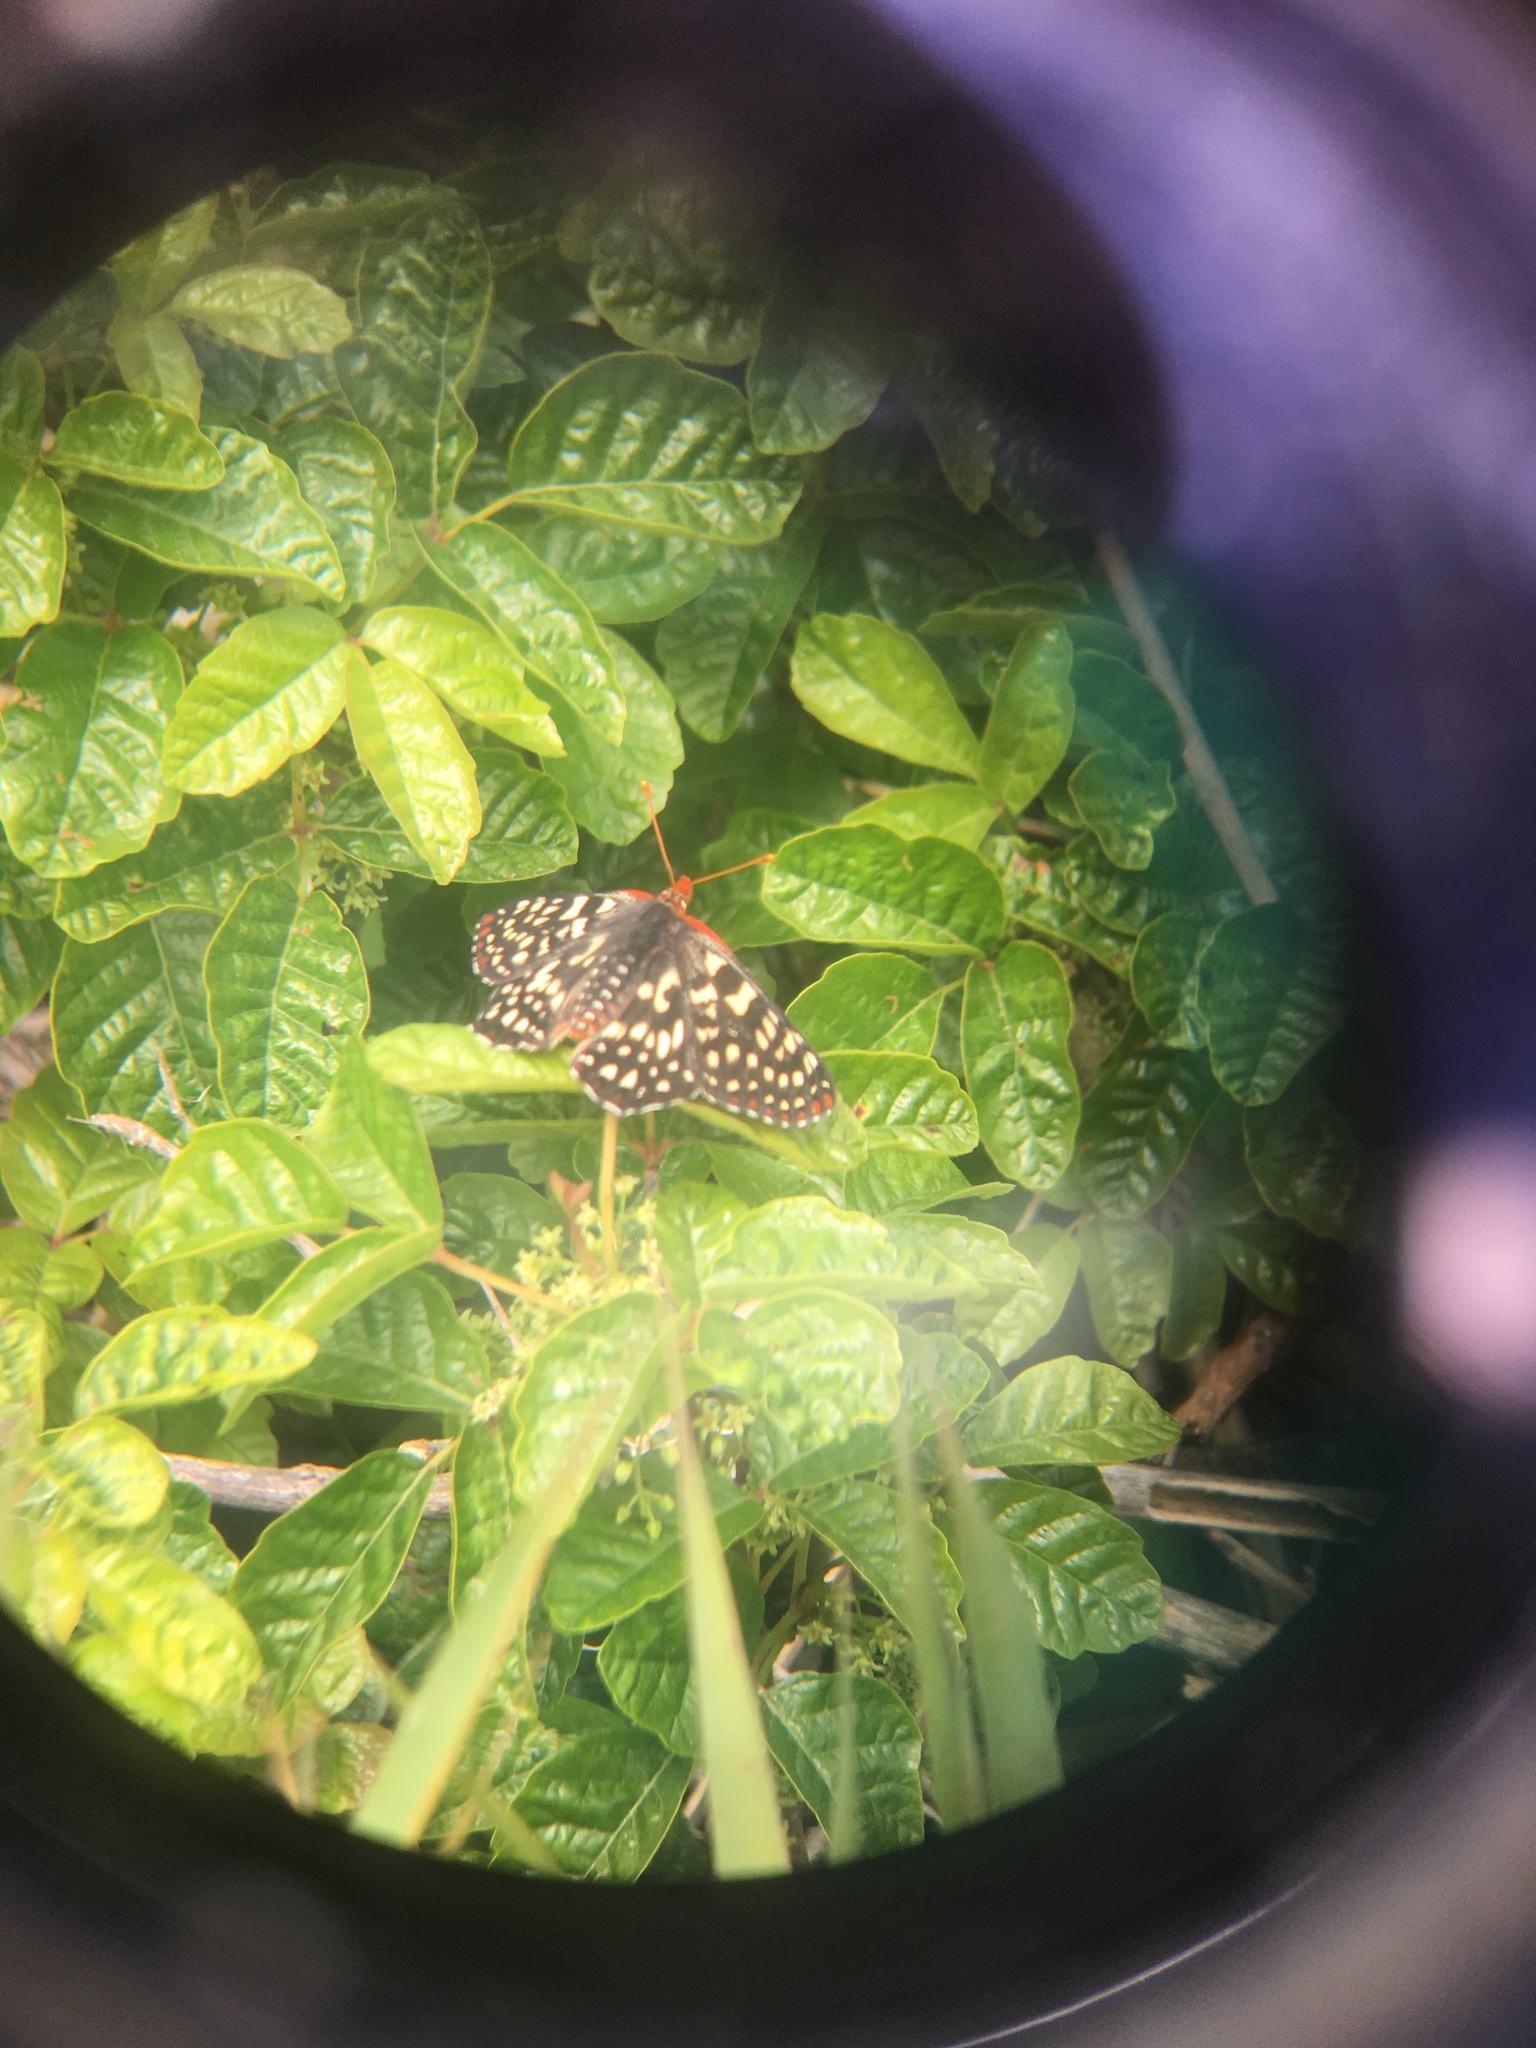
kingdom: Animalia
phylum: Arthropoda
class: Insecta
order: Lepidoptera
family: Nymphalidae
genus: Occidryas
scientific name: Occidryas chalcedona
